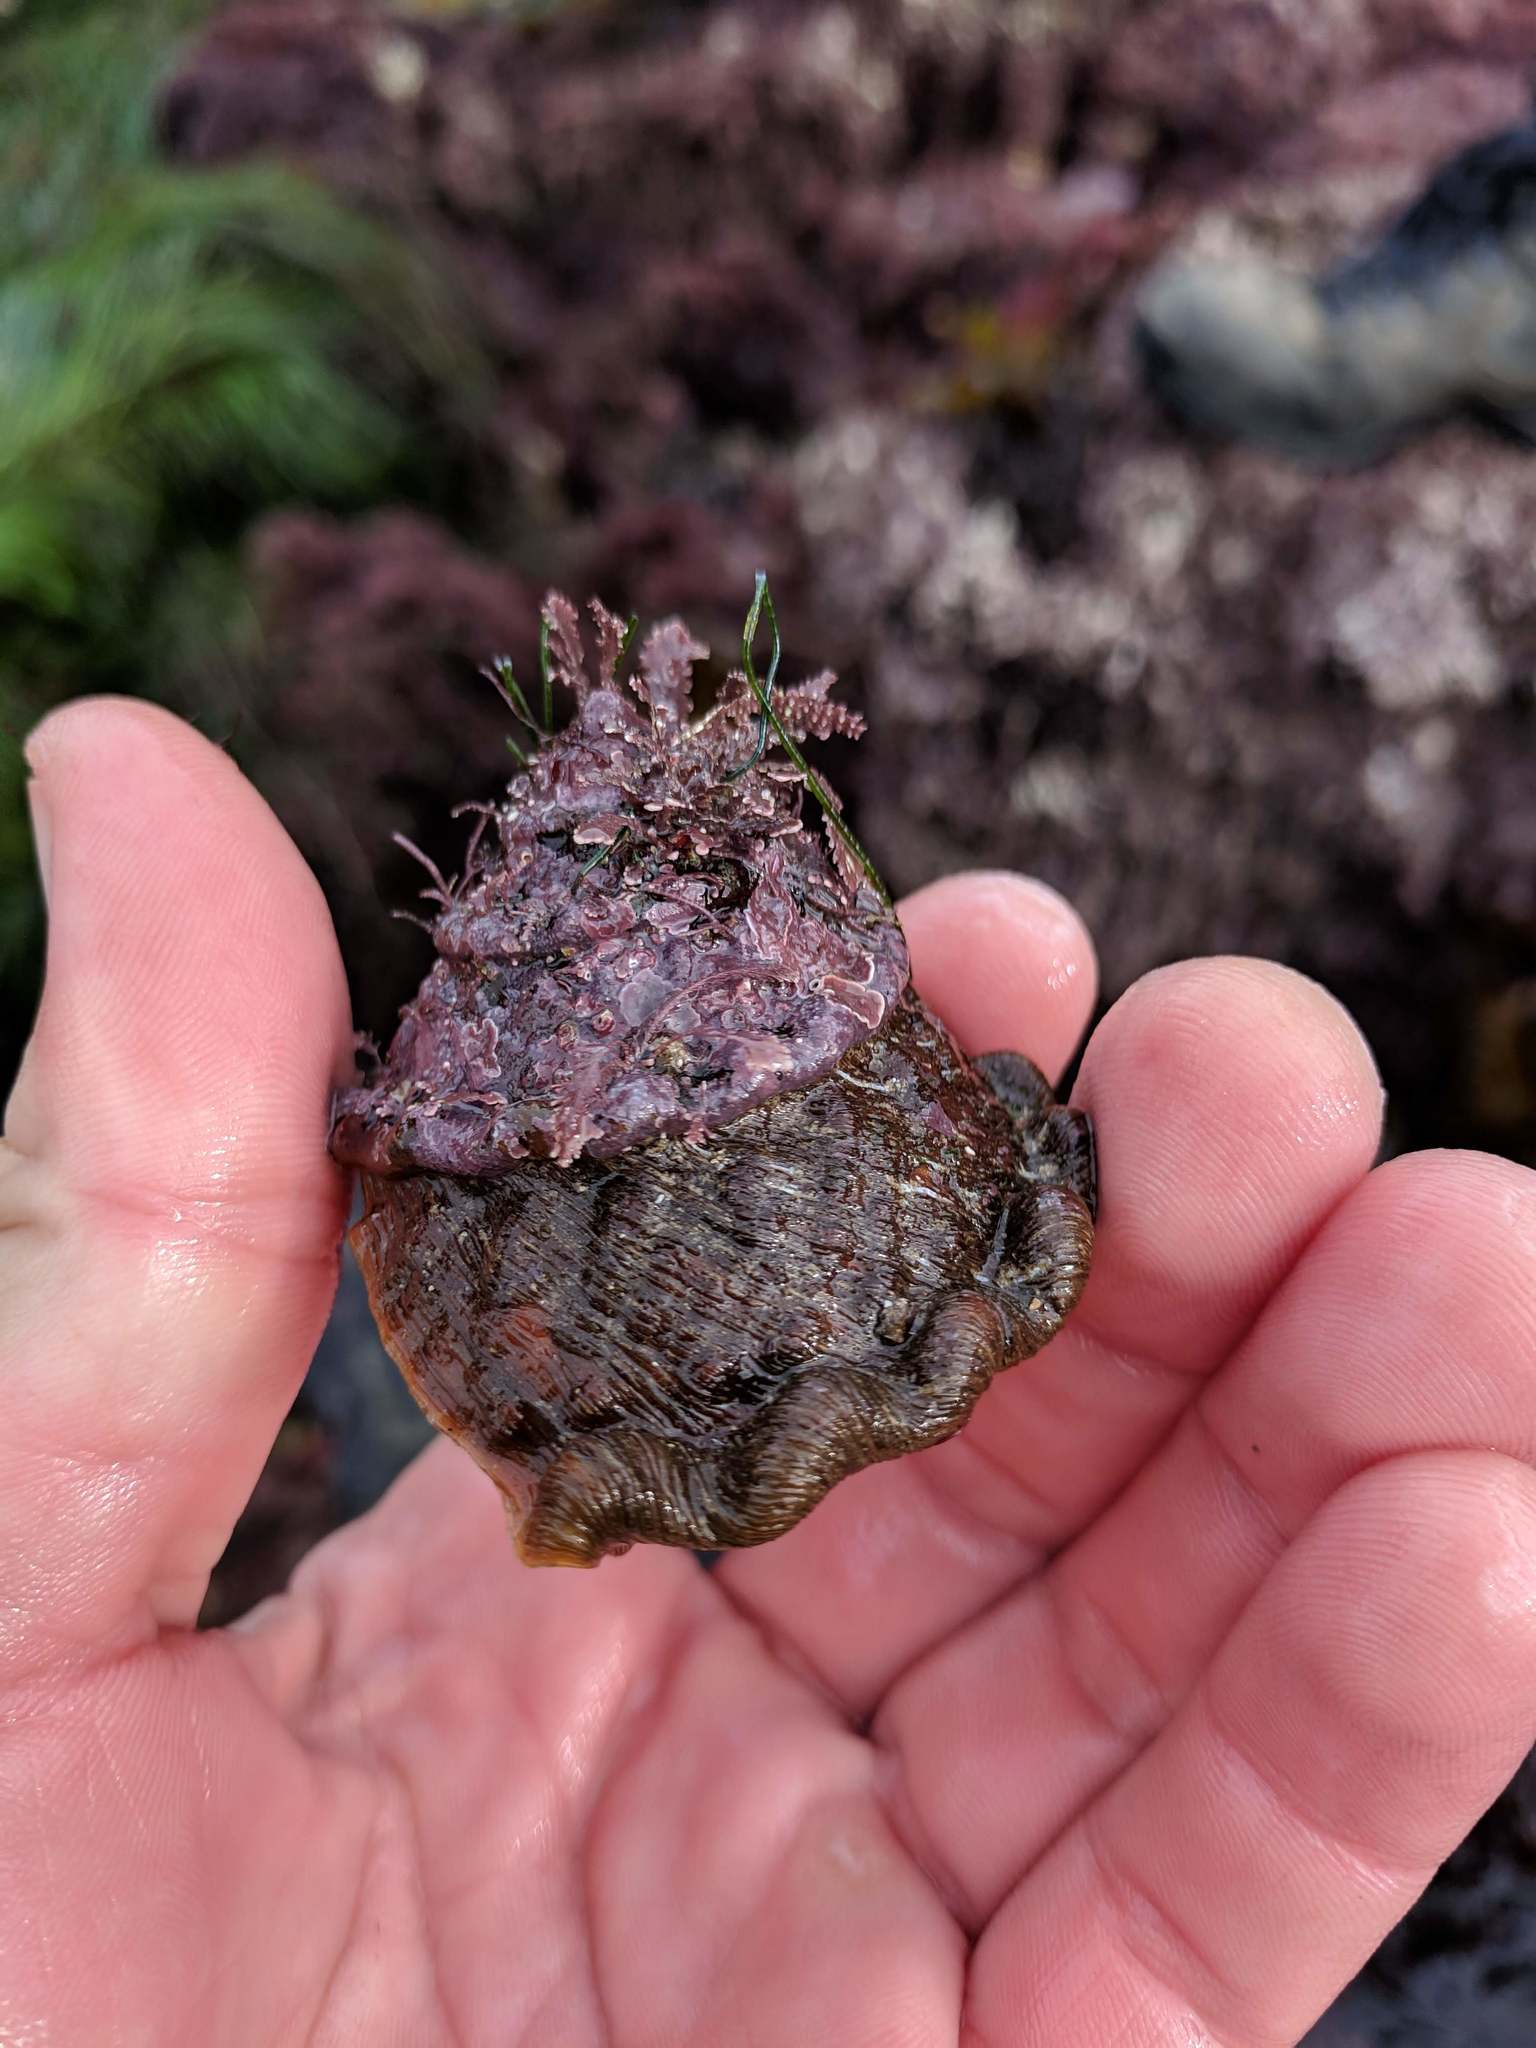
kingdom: Animalia
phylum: Mollusca
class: Gastropoda
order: Trochida
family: Turbinidae
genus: Megastraea
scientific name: Megastraea undosa
